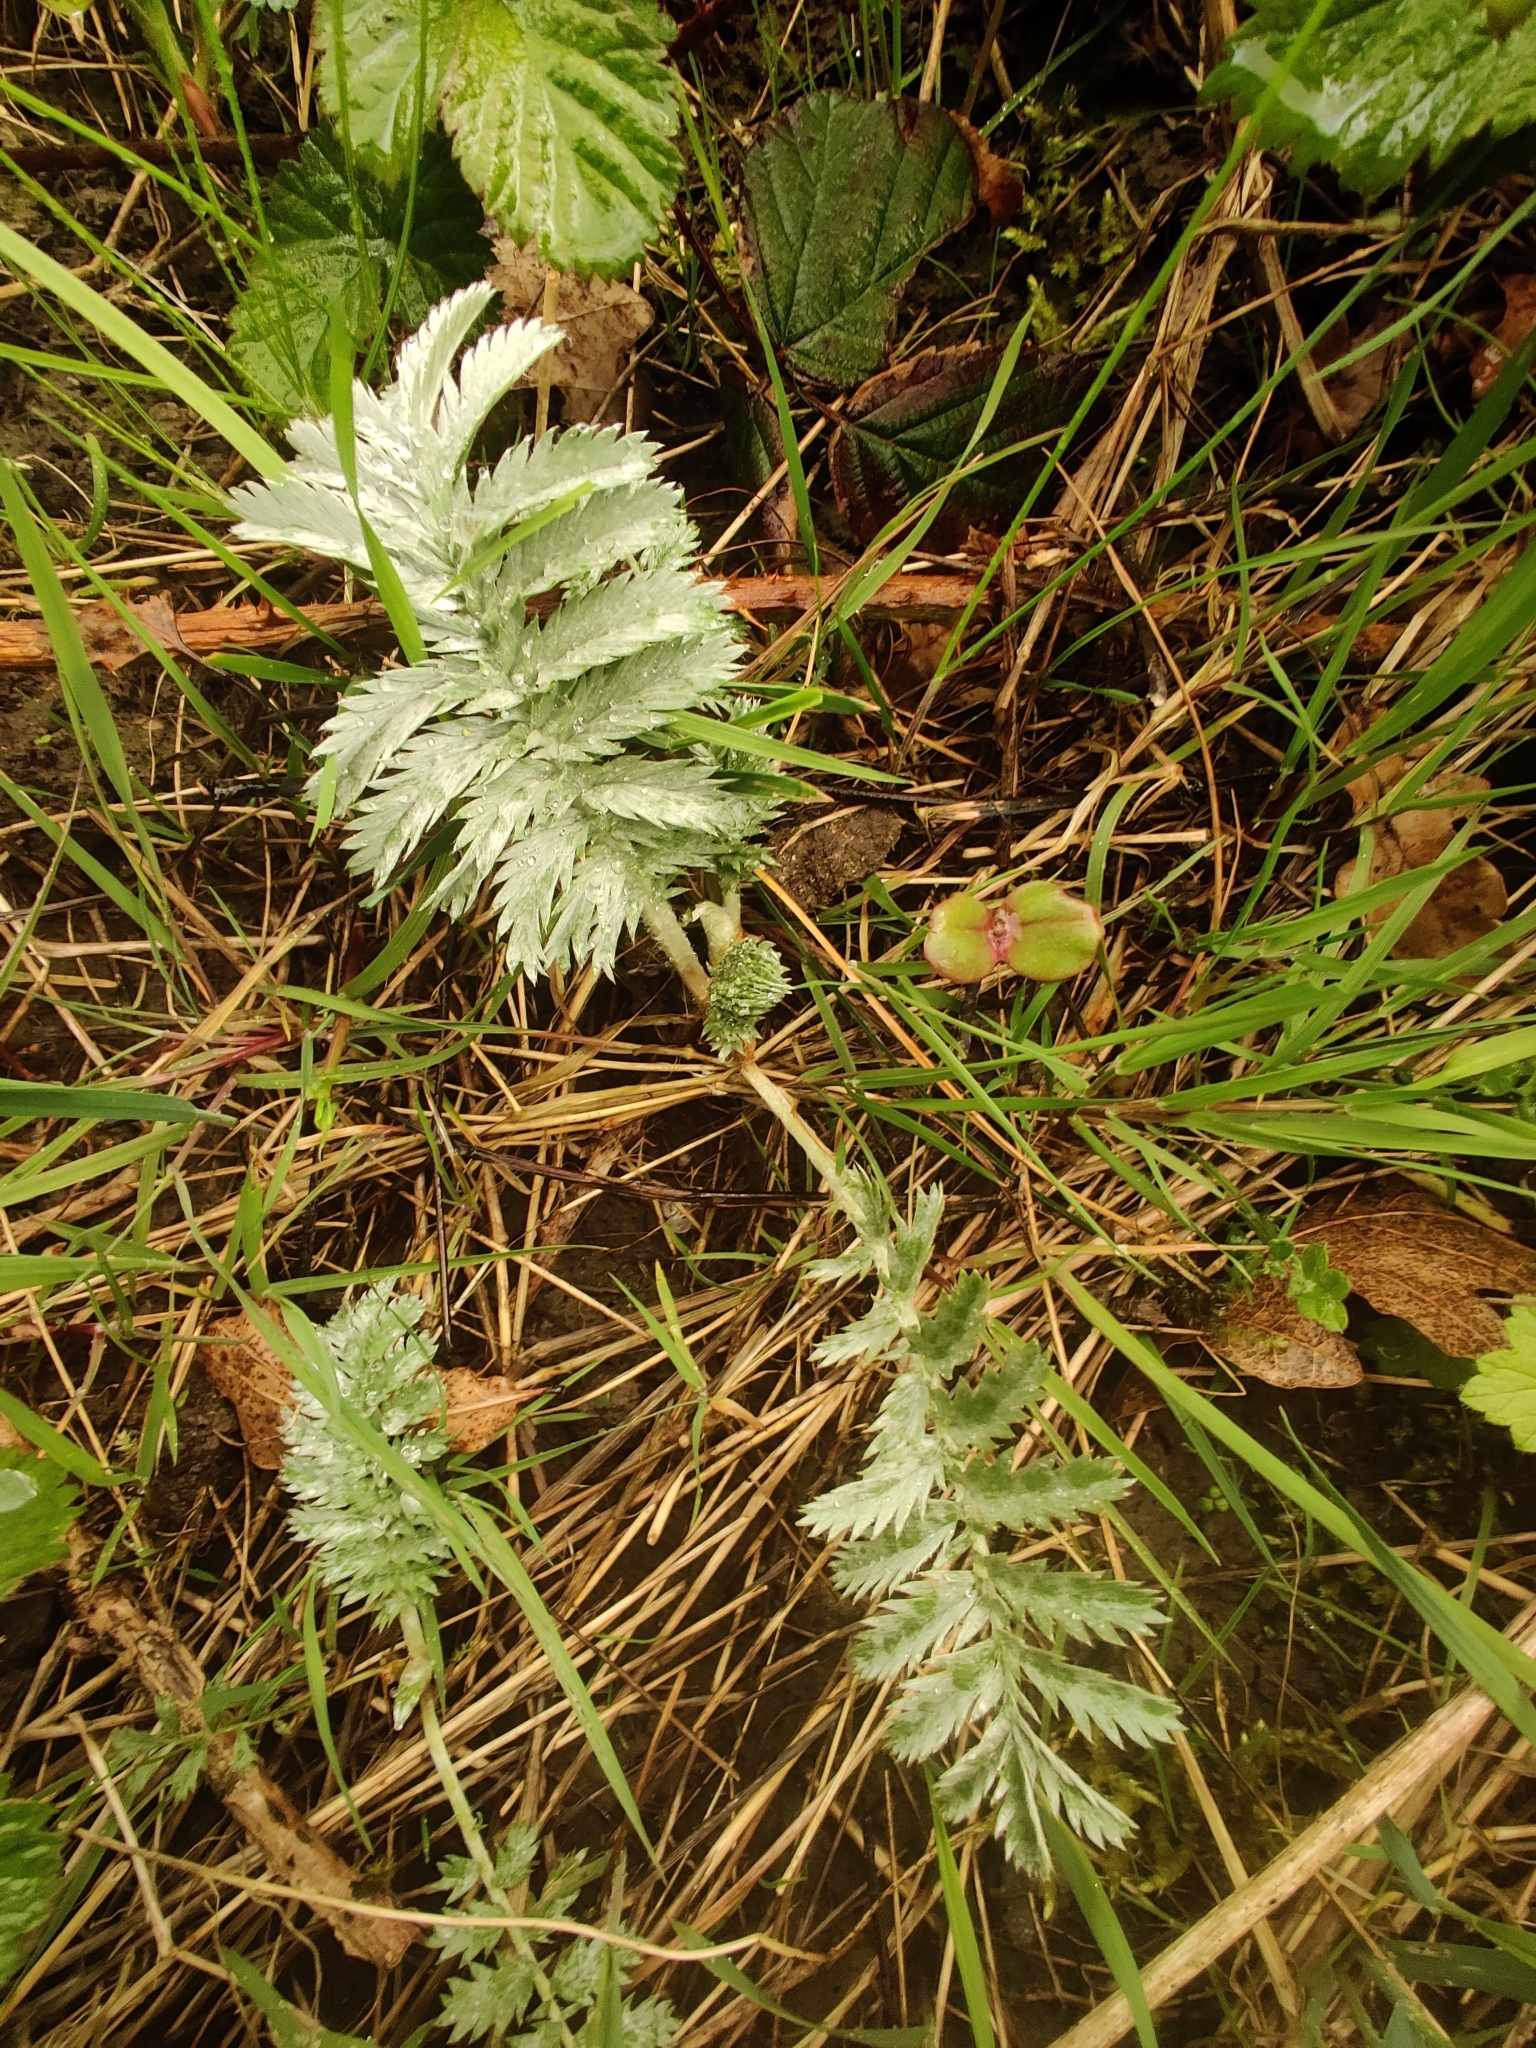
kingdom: Plantae
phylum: Tracheophyta
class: Magnoliopsida
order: Rosales
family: Rosaceae
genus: Argentina
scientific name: Argentina anserina
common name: Common silverweed
